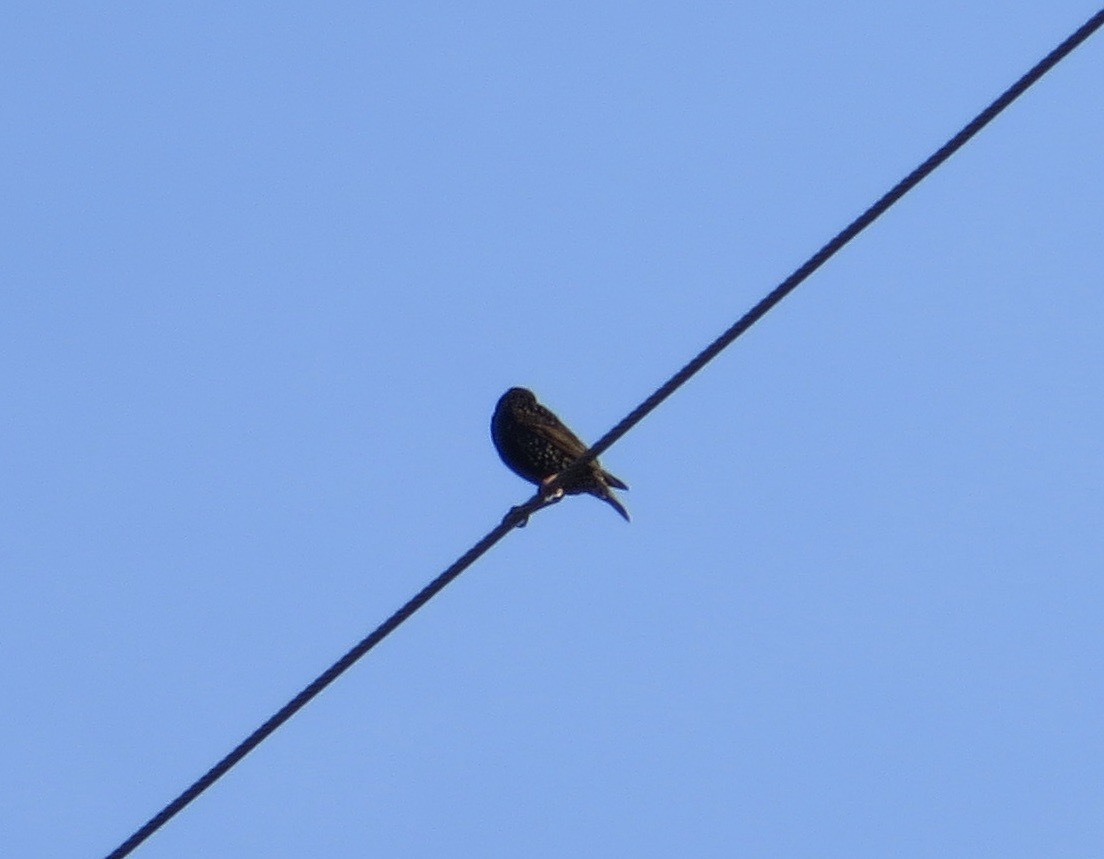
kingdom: Animalia
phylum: Chordata
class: Aves
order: Passeriformes
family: Sturnidae
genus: Sturnus
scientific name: Sturnus vulgaris
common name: Common starling
